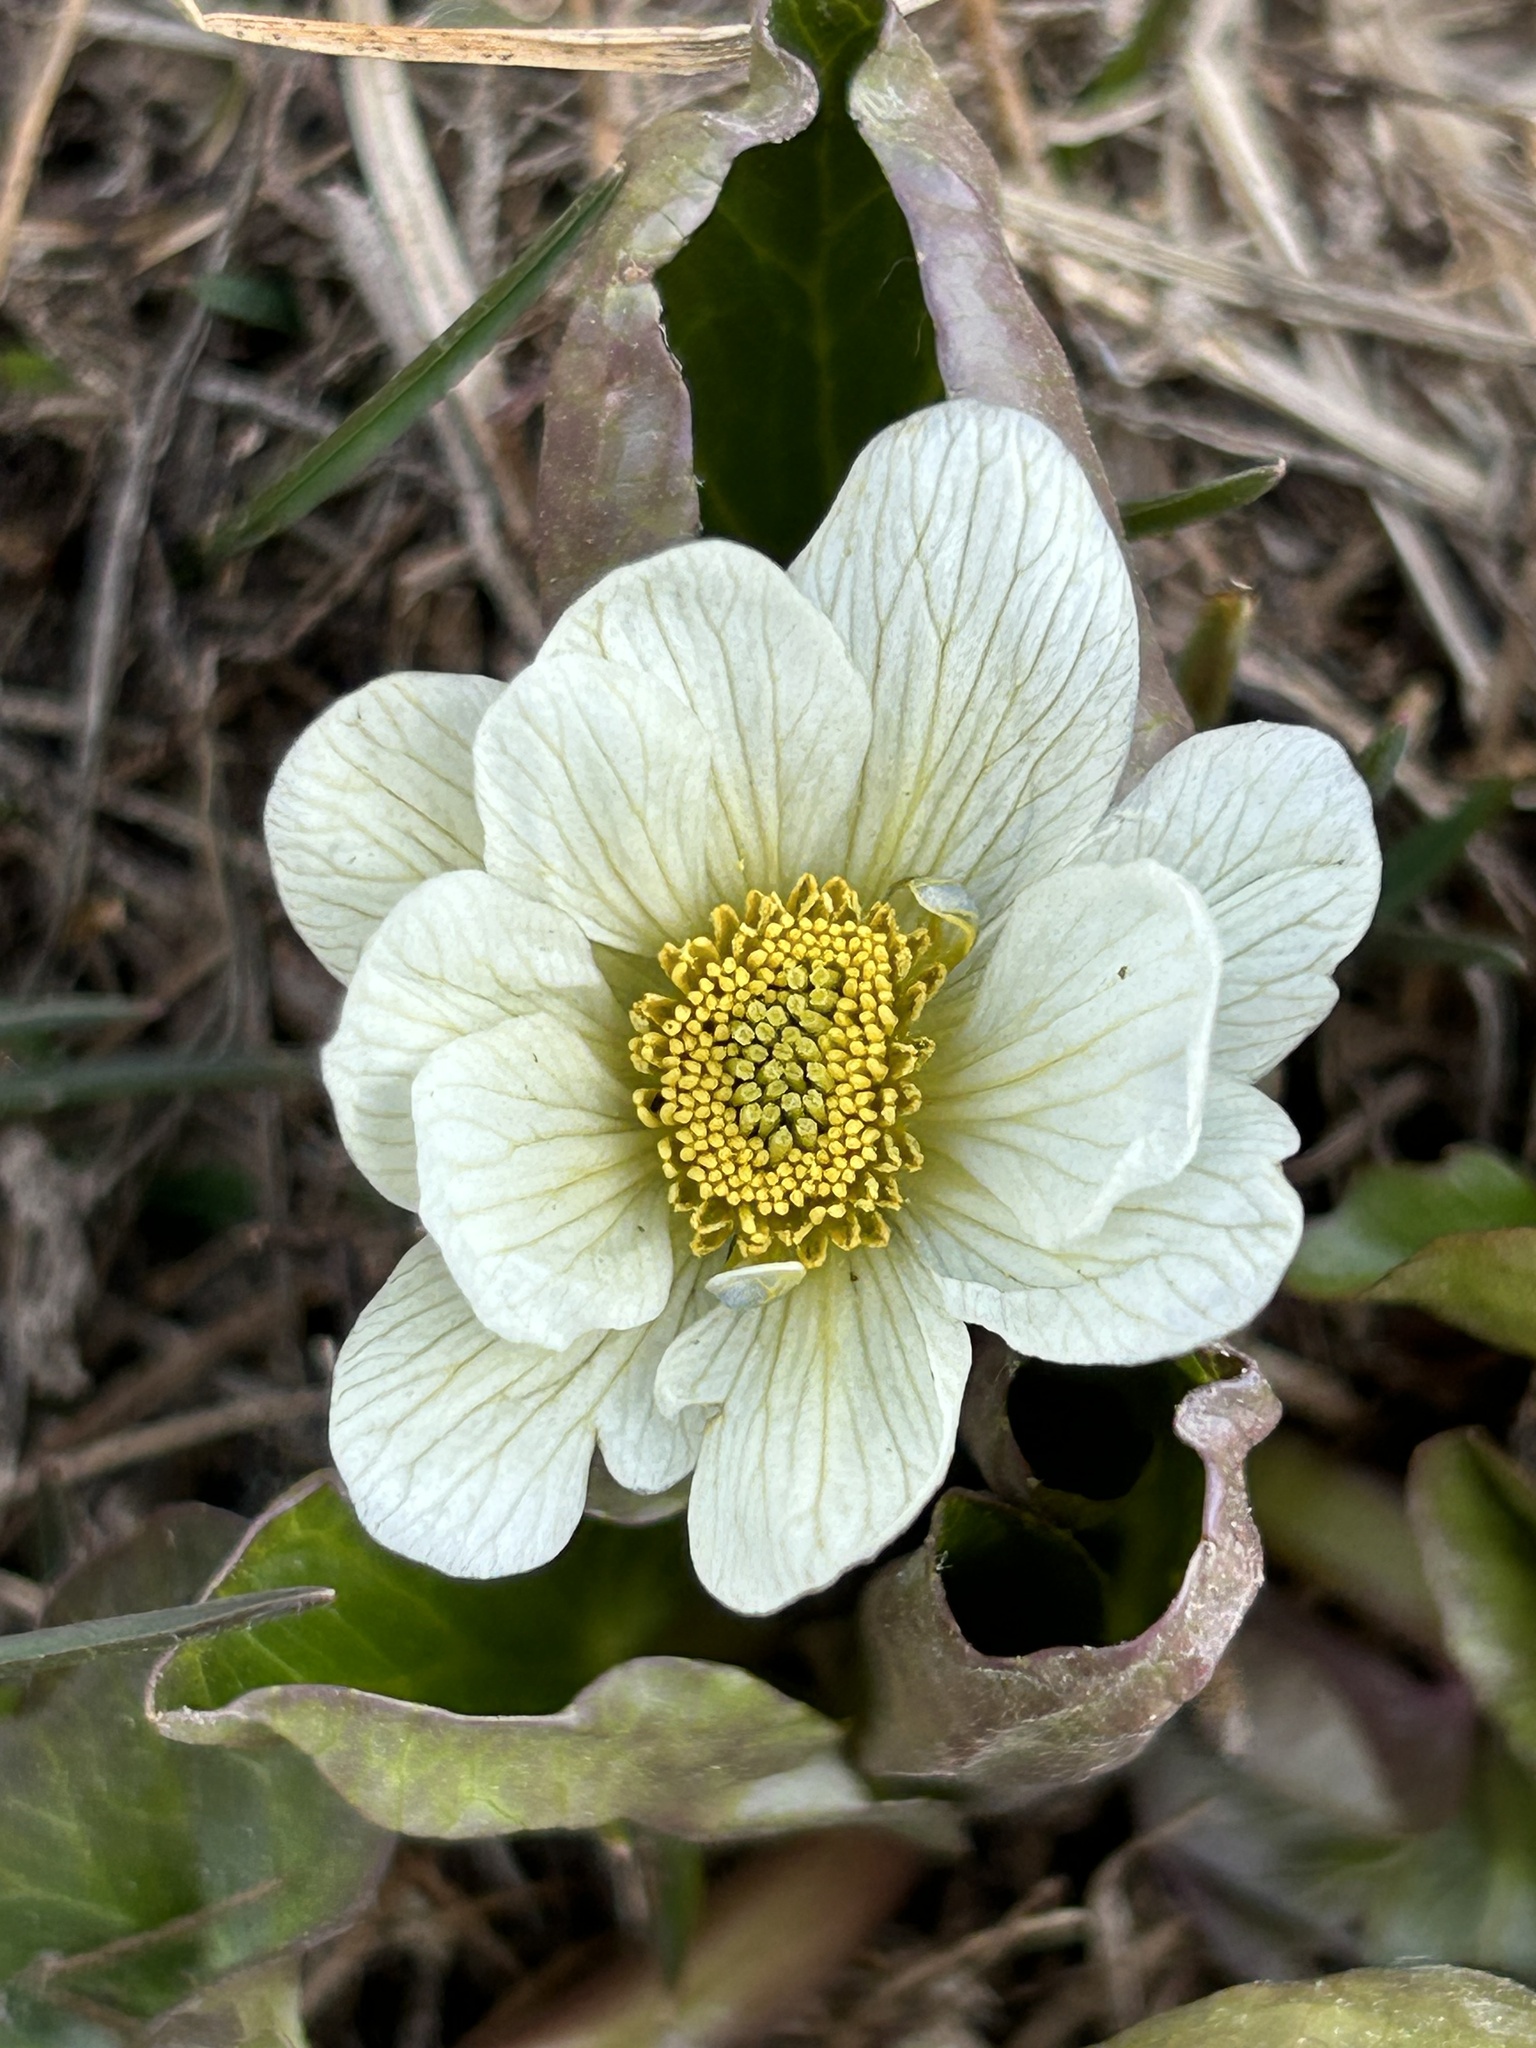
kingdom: Plantae
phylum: Tracheophyta
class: Magnoliopsida
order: Ranunculales
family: Ranunculaceae
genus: Caltha
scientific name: Caltha leptosepala
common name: Elkslip
